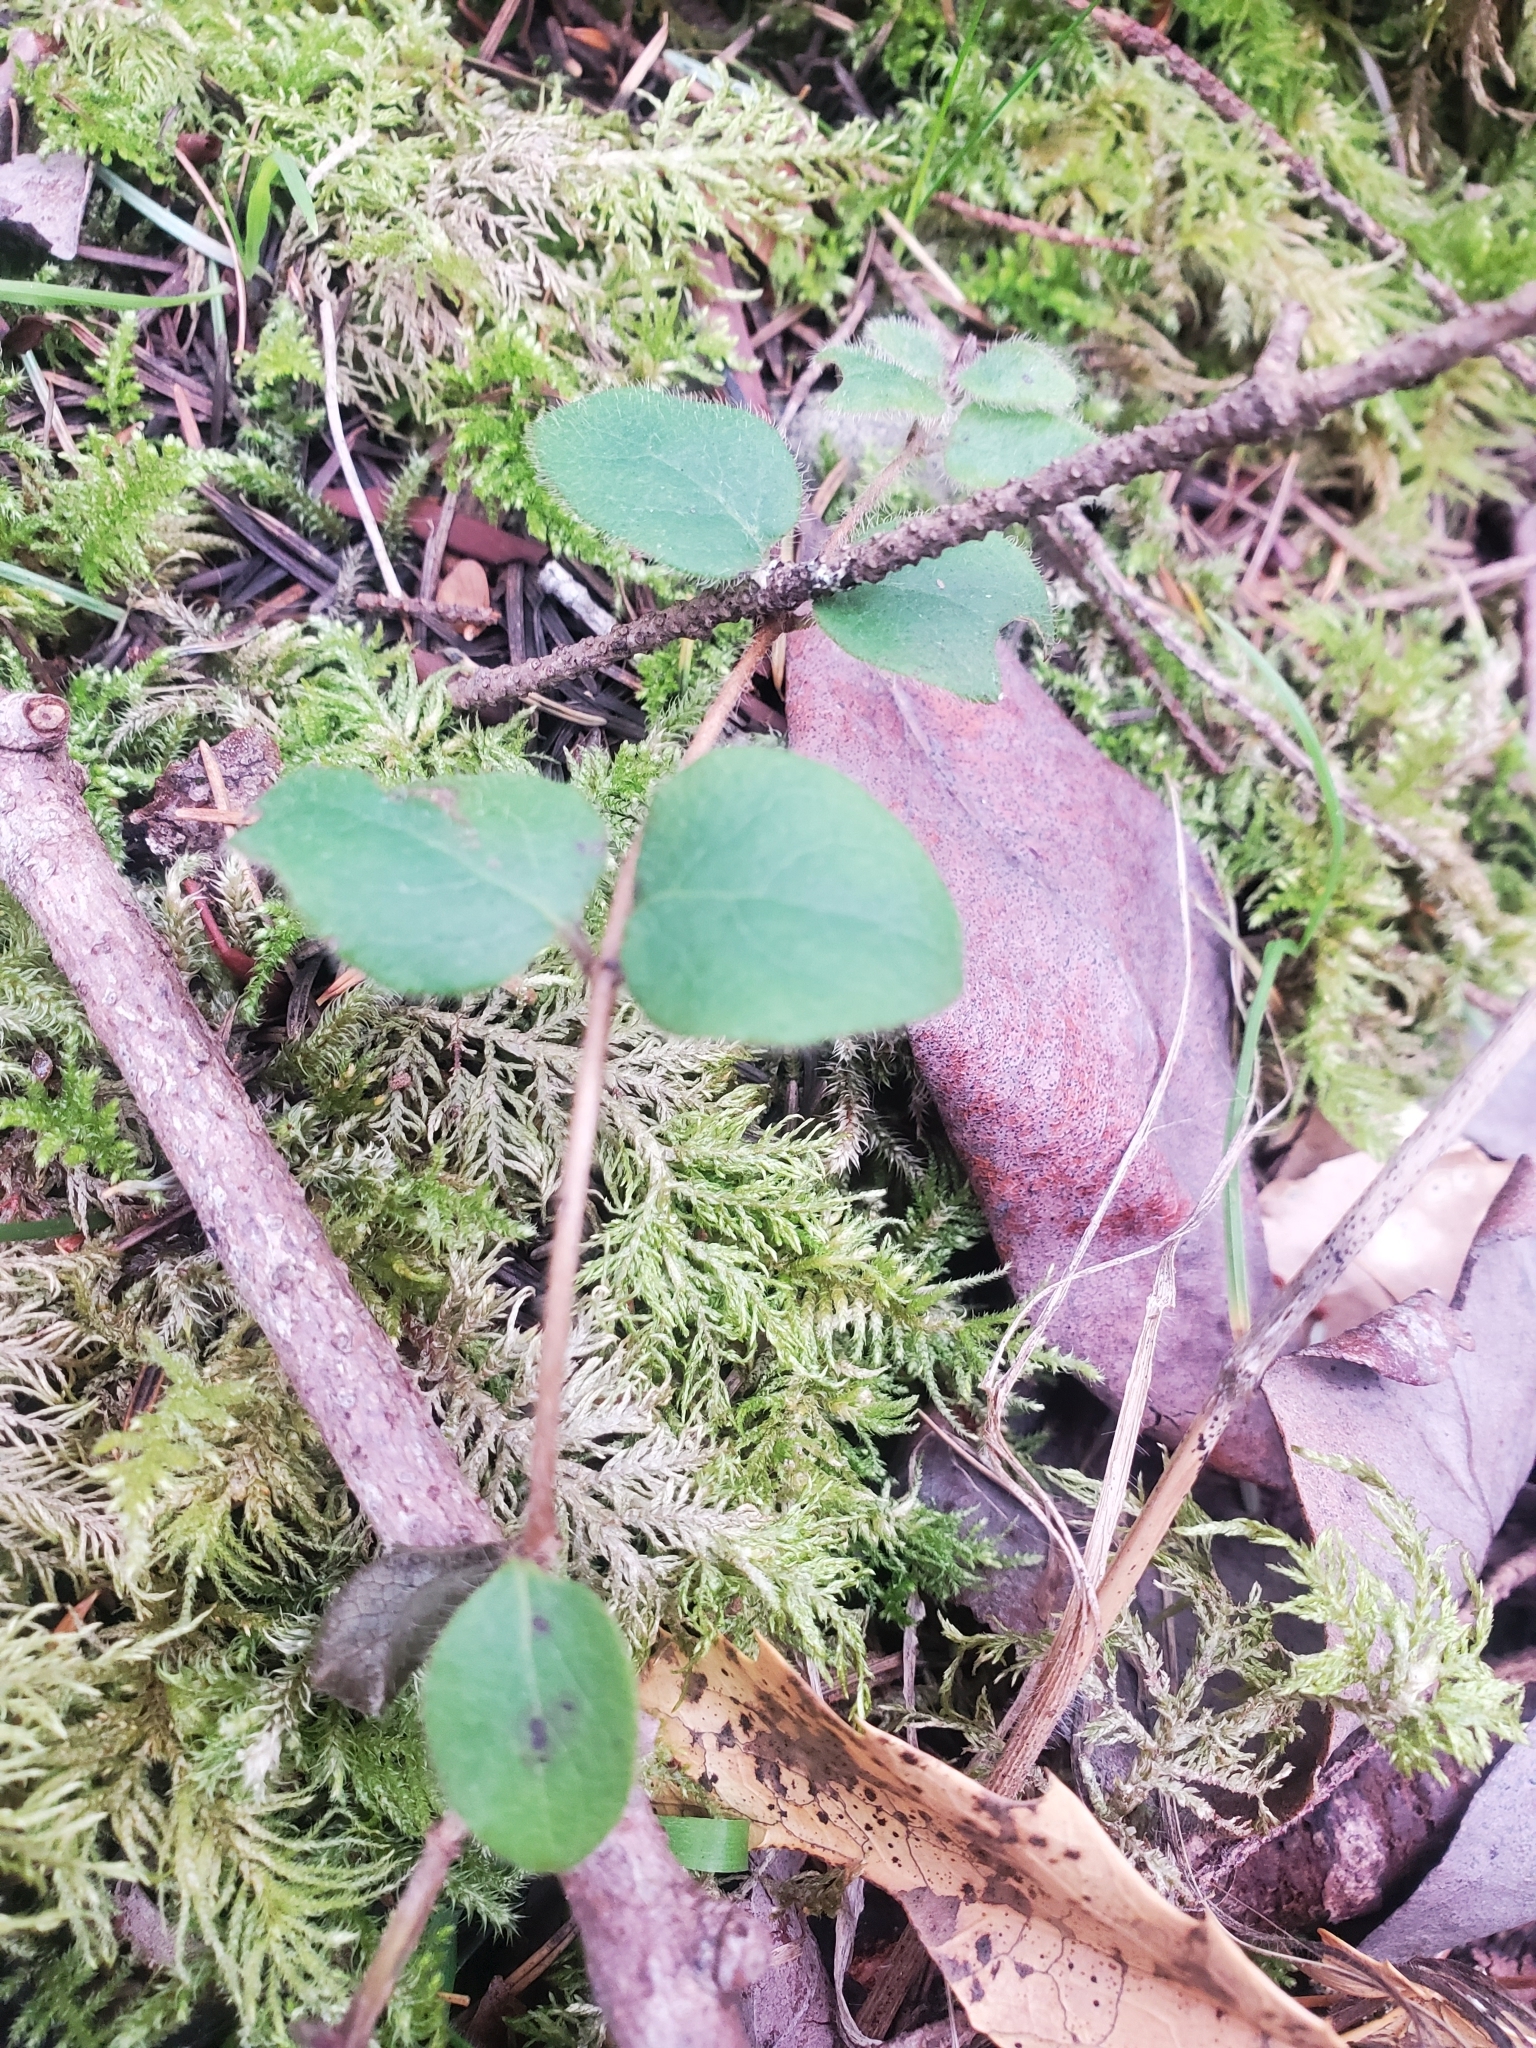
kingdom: Plantae
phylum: Tracheophyta
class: Magnoliopsida
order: Dipsacales
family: Caprifoliaceae
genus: Lonicera
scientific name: Lonicera hispidula
